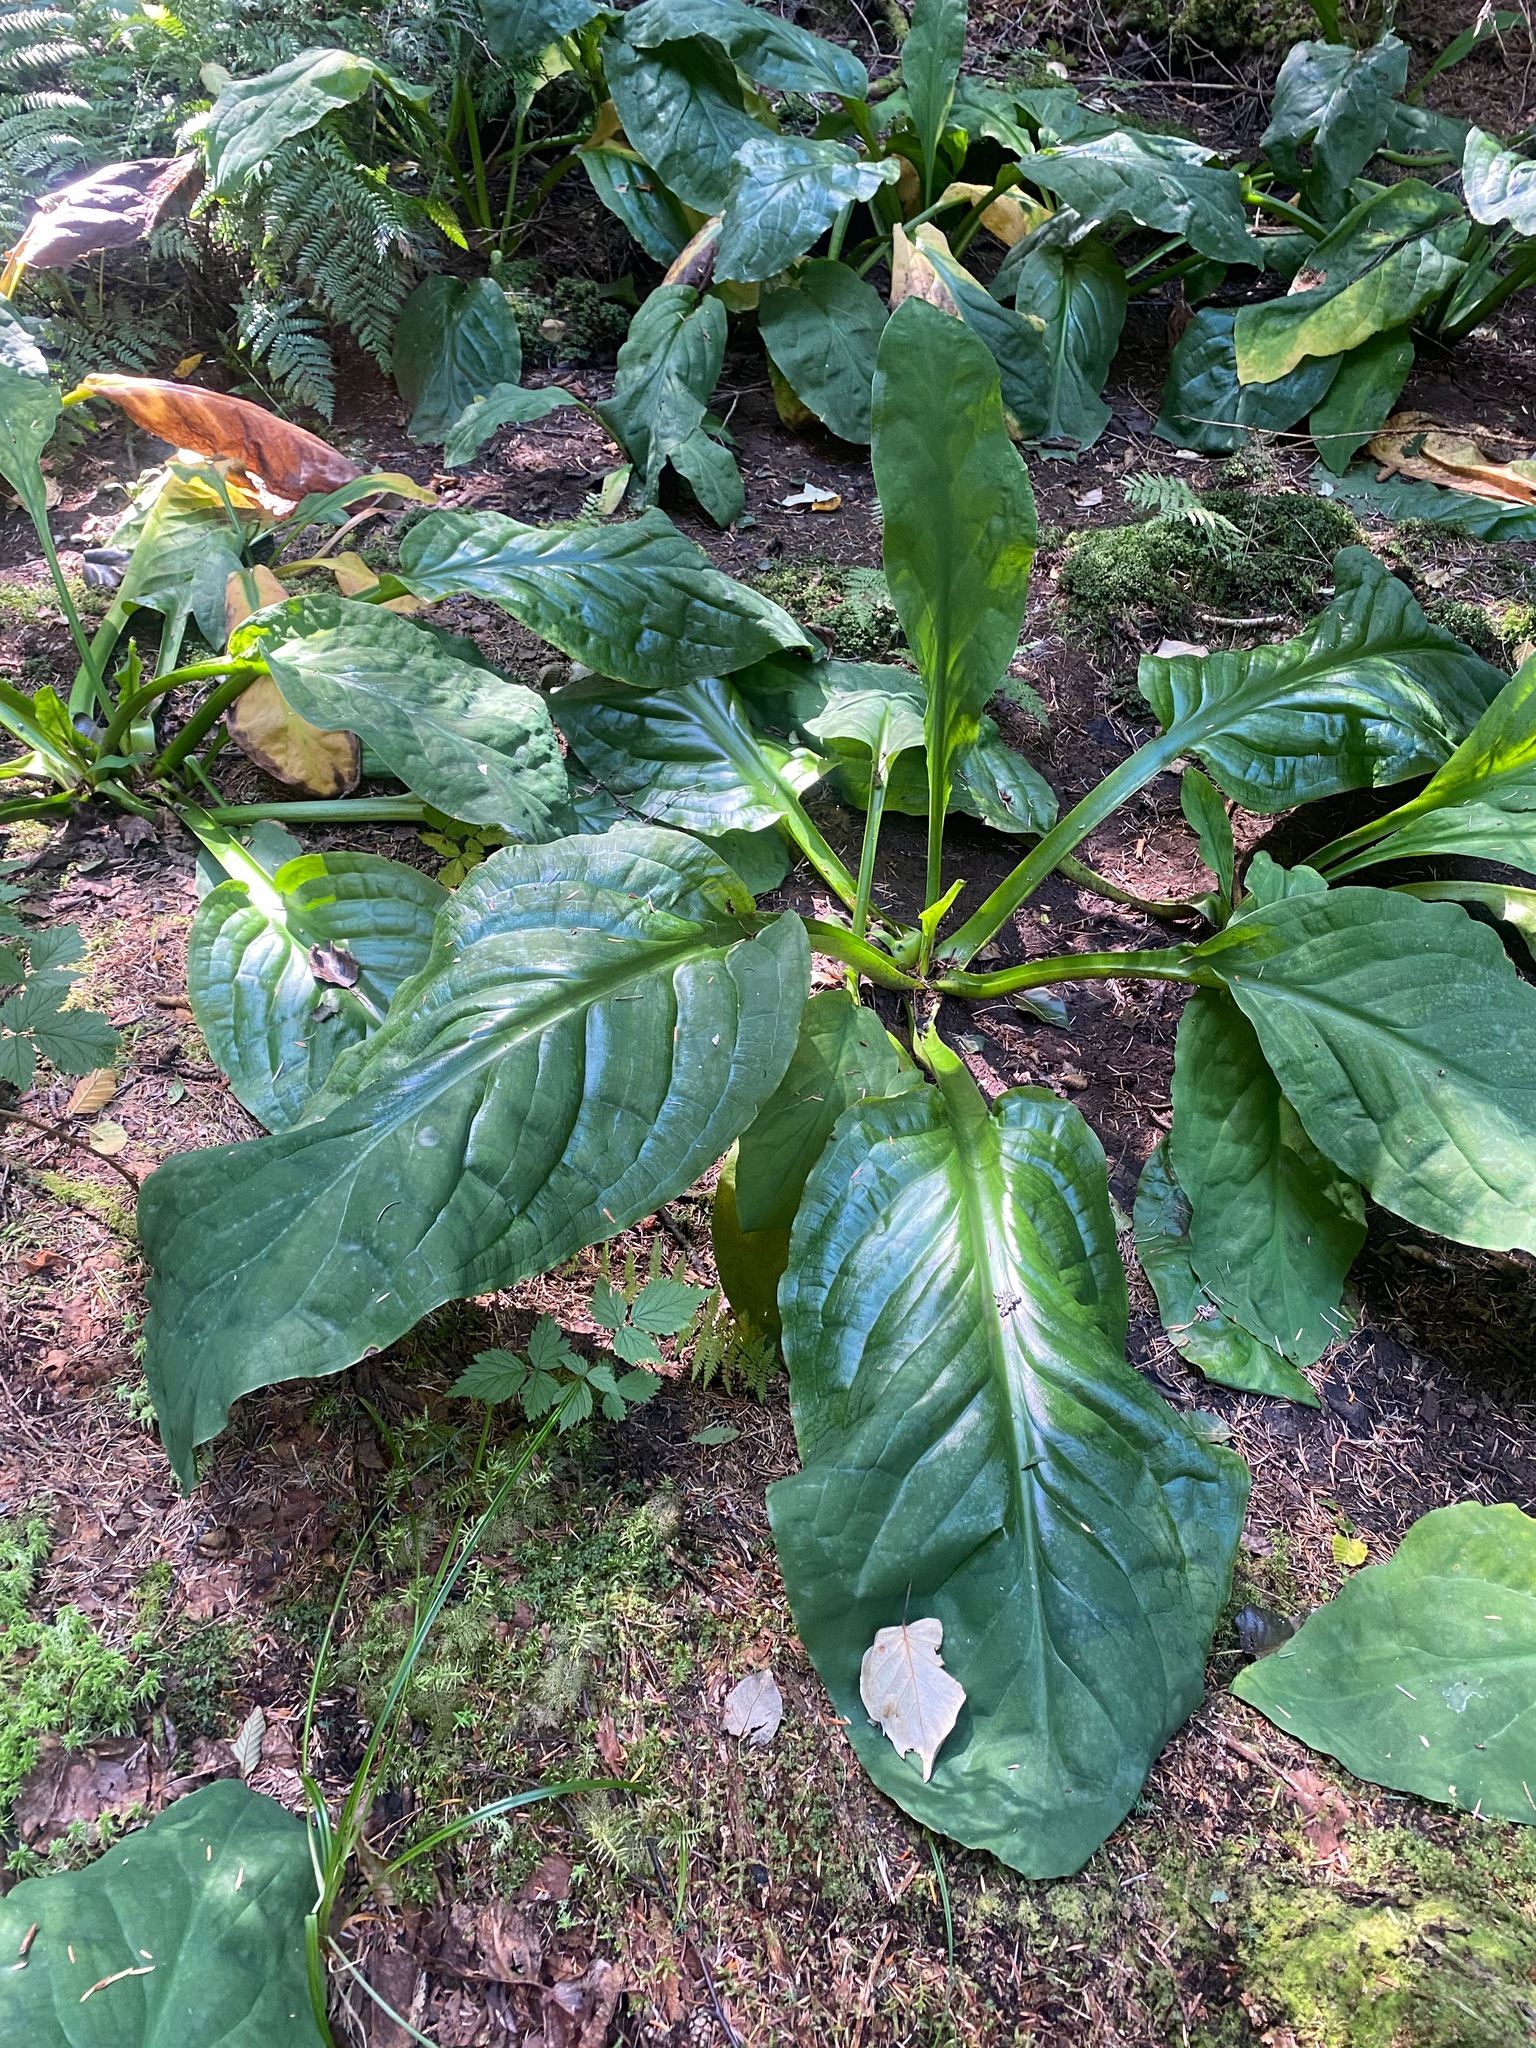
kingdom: Plantae
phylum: Tracheophyta
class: Liliopsida
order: Alismatales
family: Araceae
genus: Lysichiton
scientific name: Lysichiton americanus
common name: American skunk cabbage
